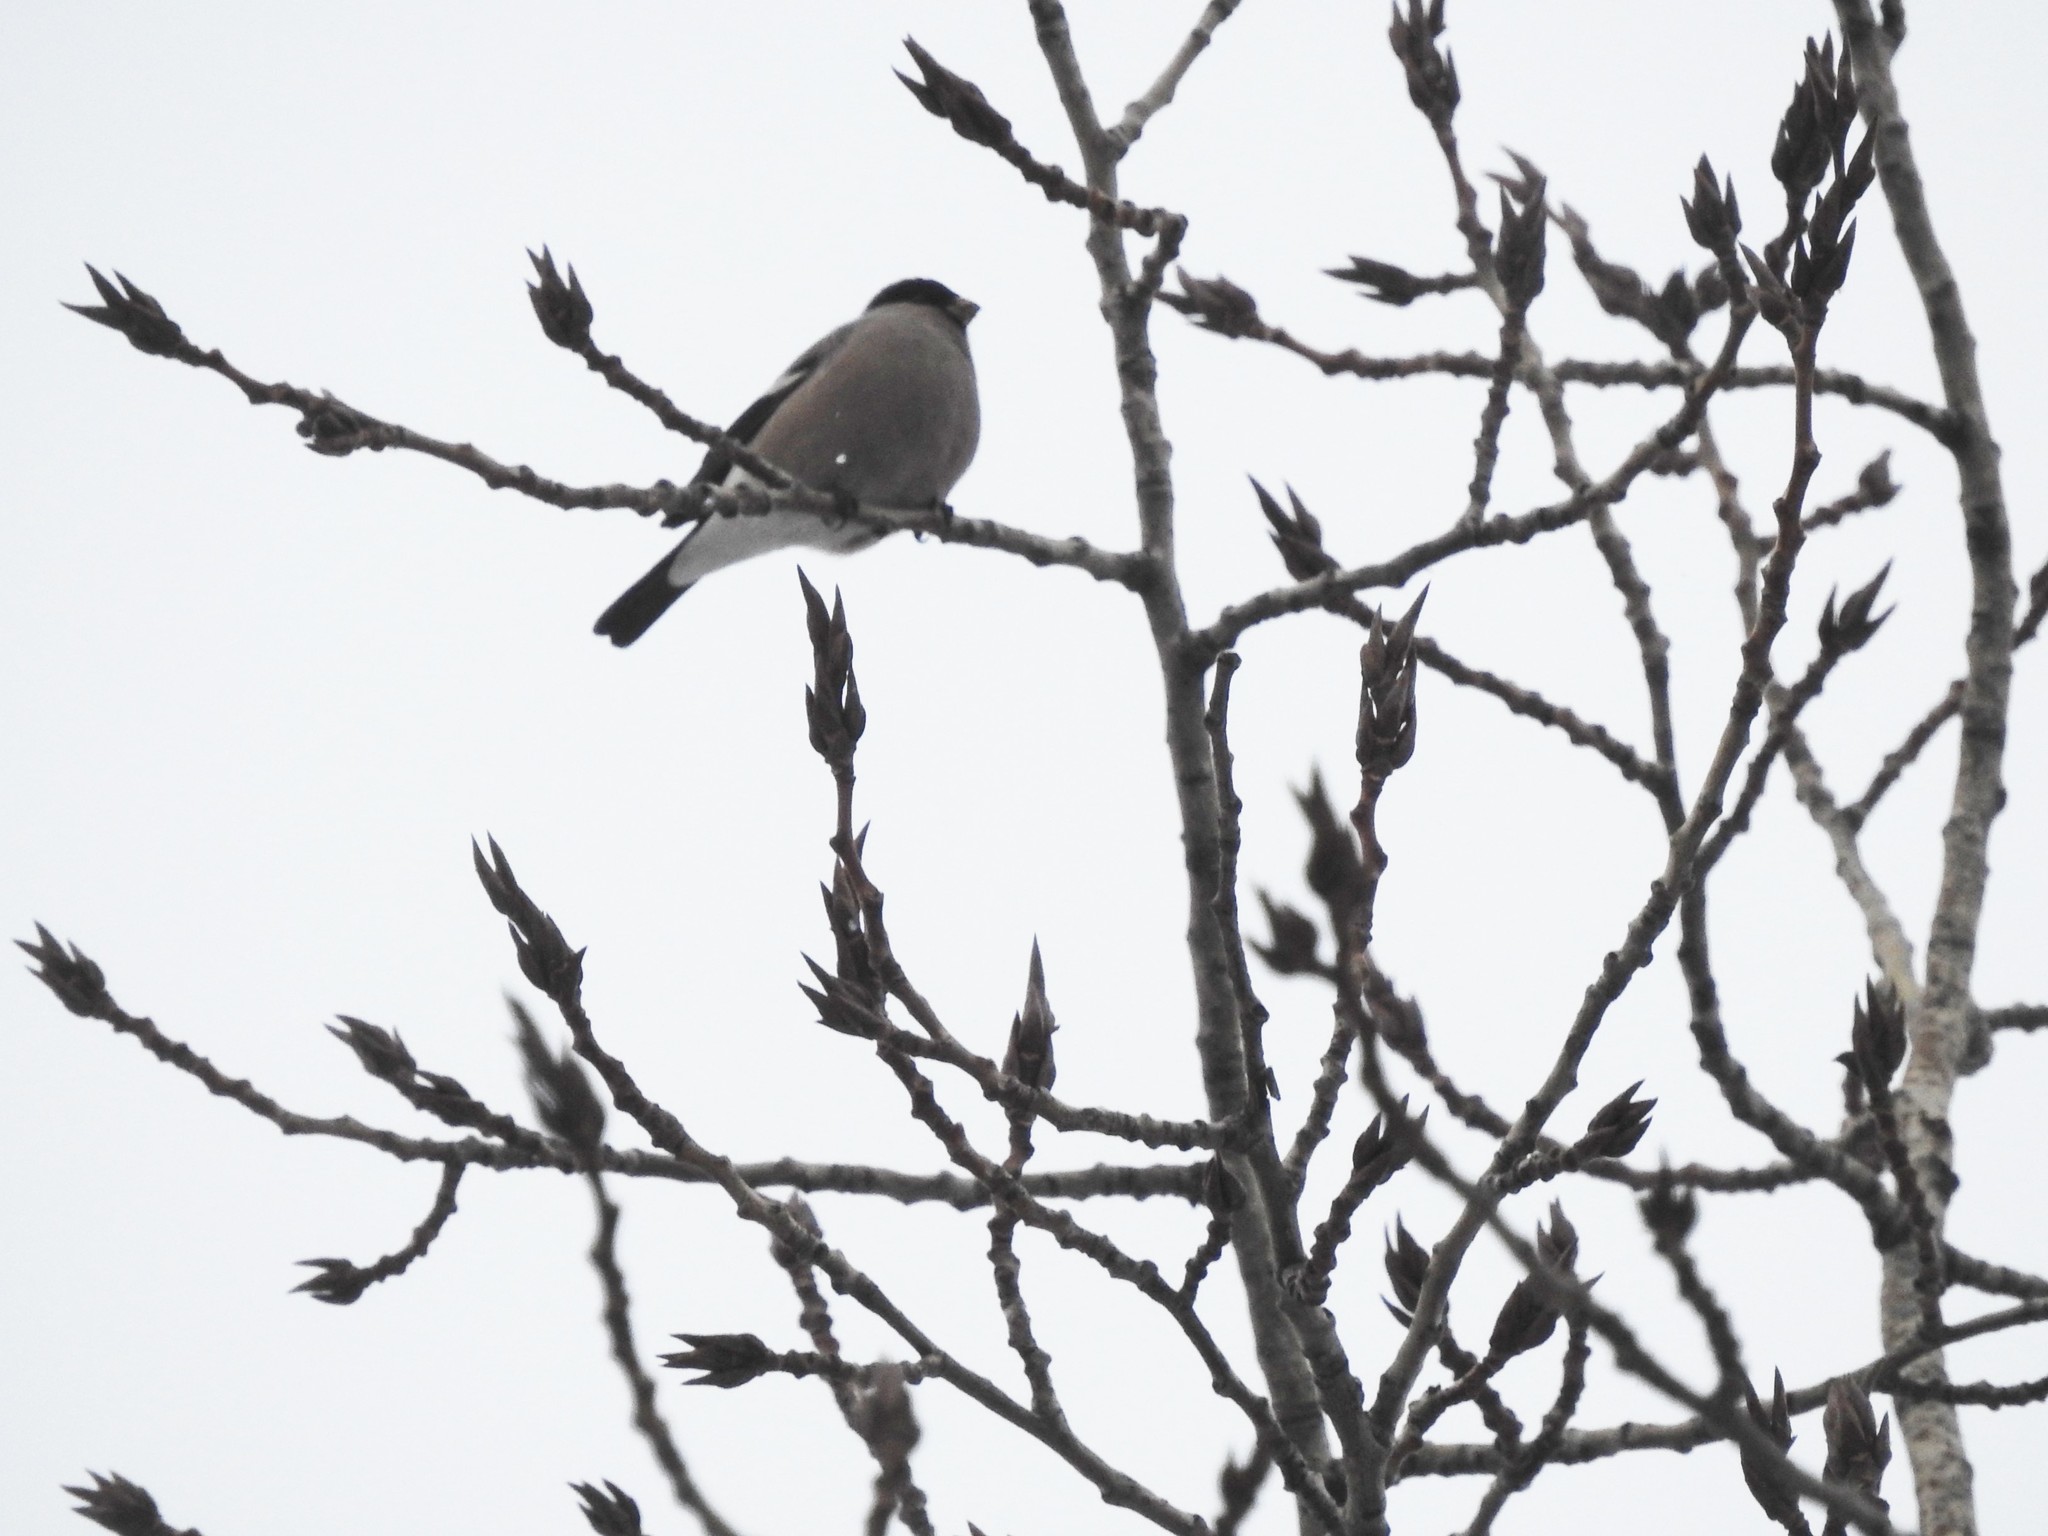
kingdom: Animalia
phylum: Chordata
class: Aves
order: Passeriformes
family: Fringillidae
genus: Pyrrhula
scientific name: Pyrrhula pyrrhula
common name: Eurasian bullfinch
